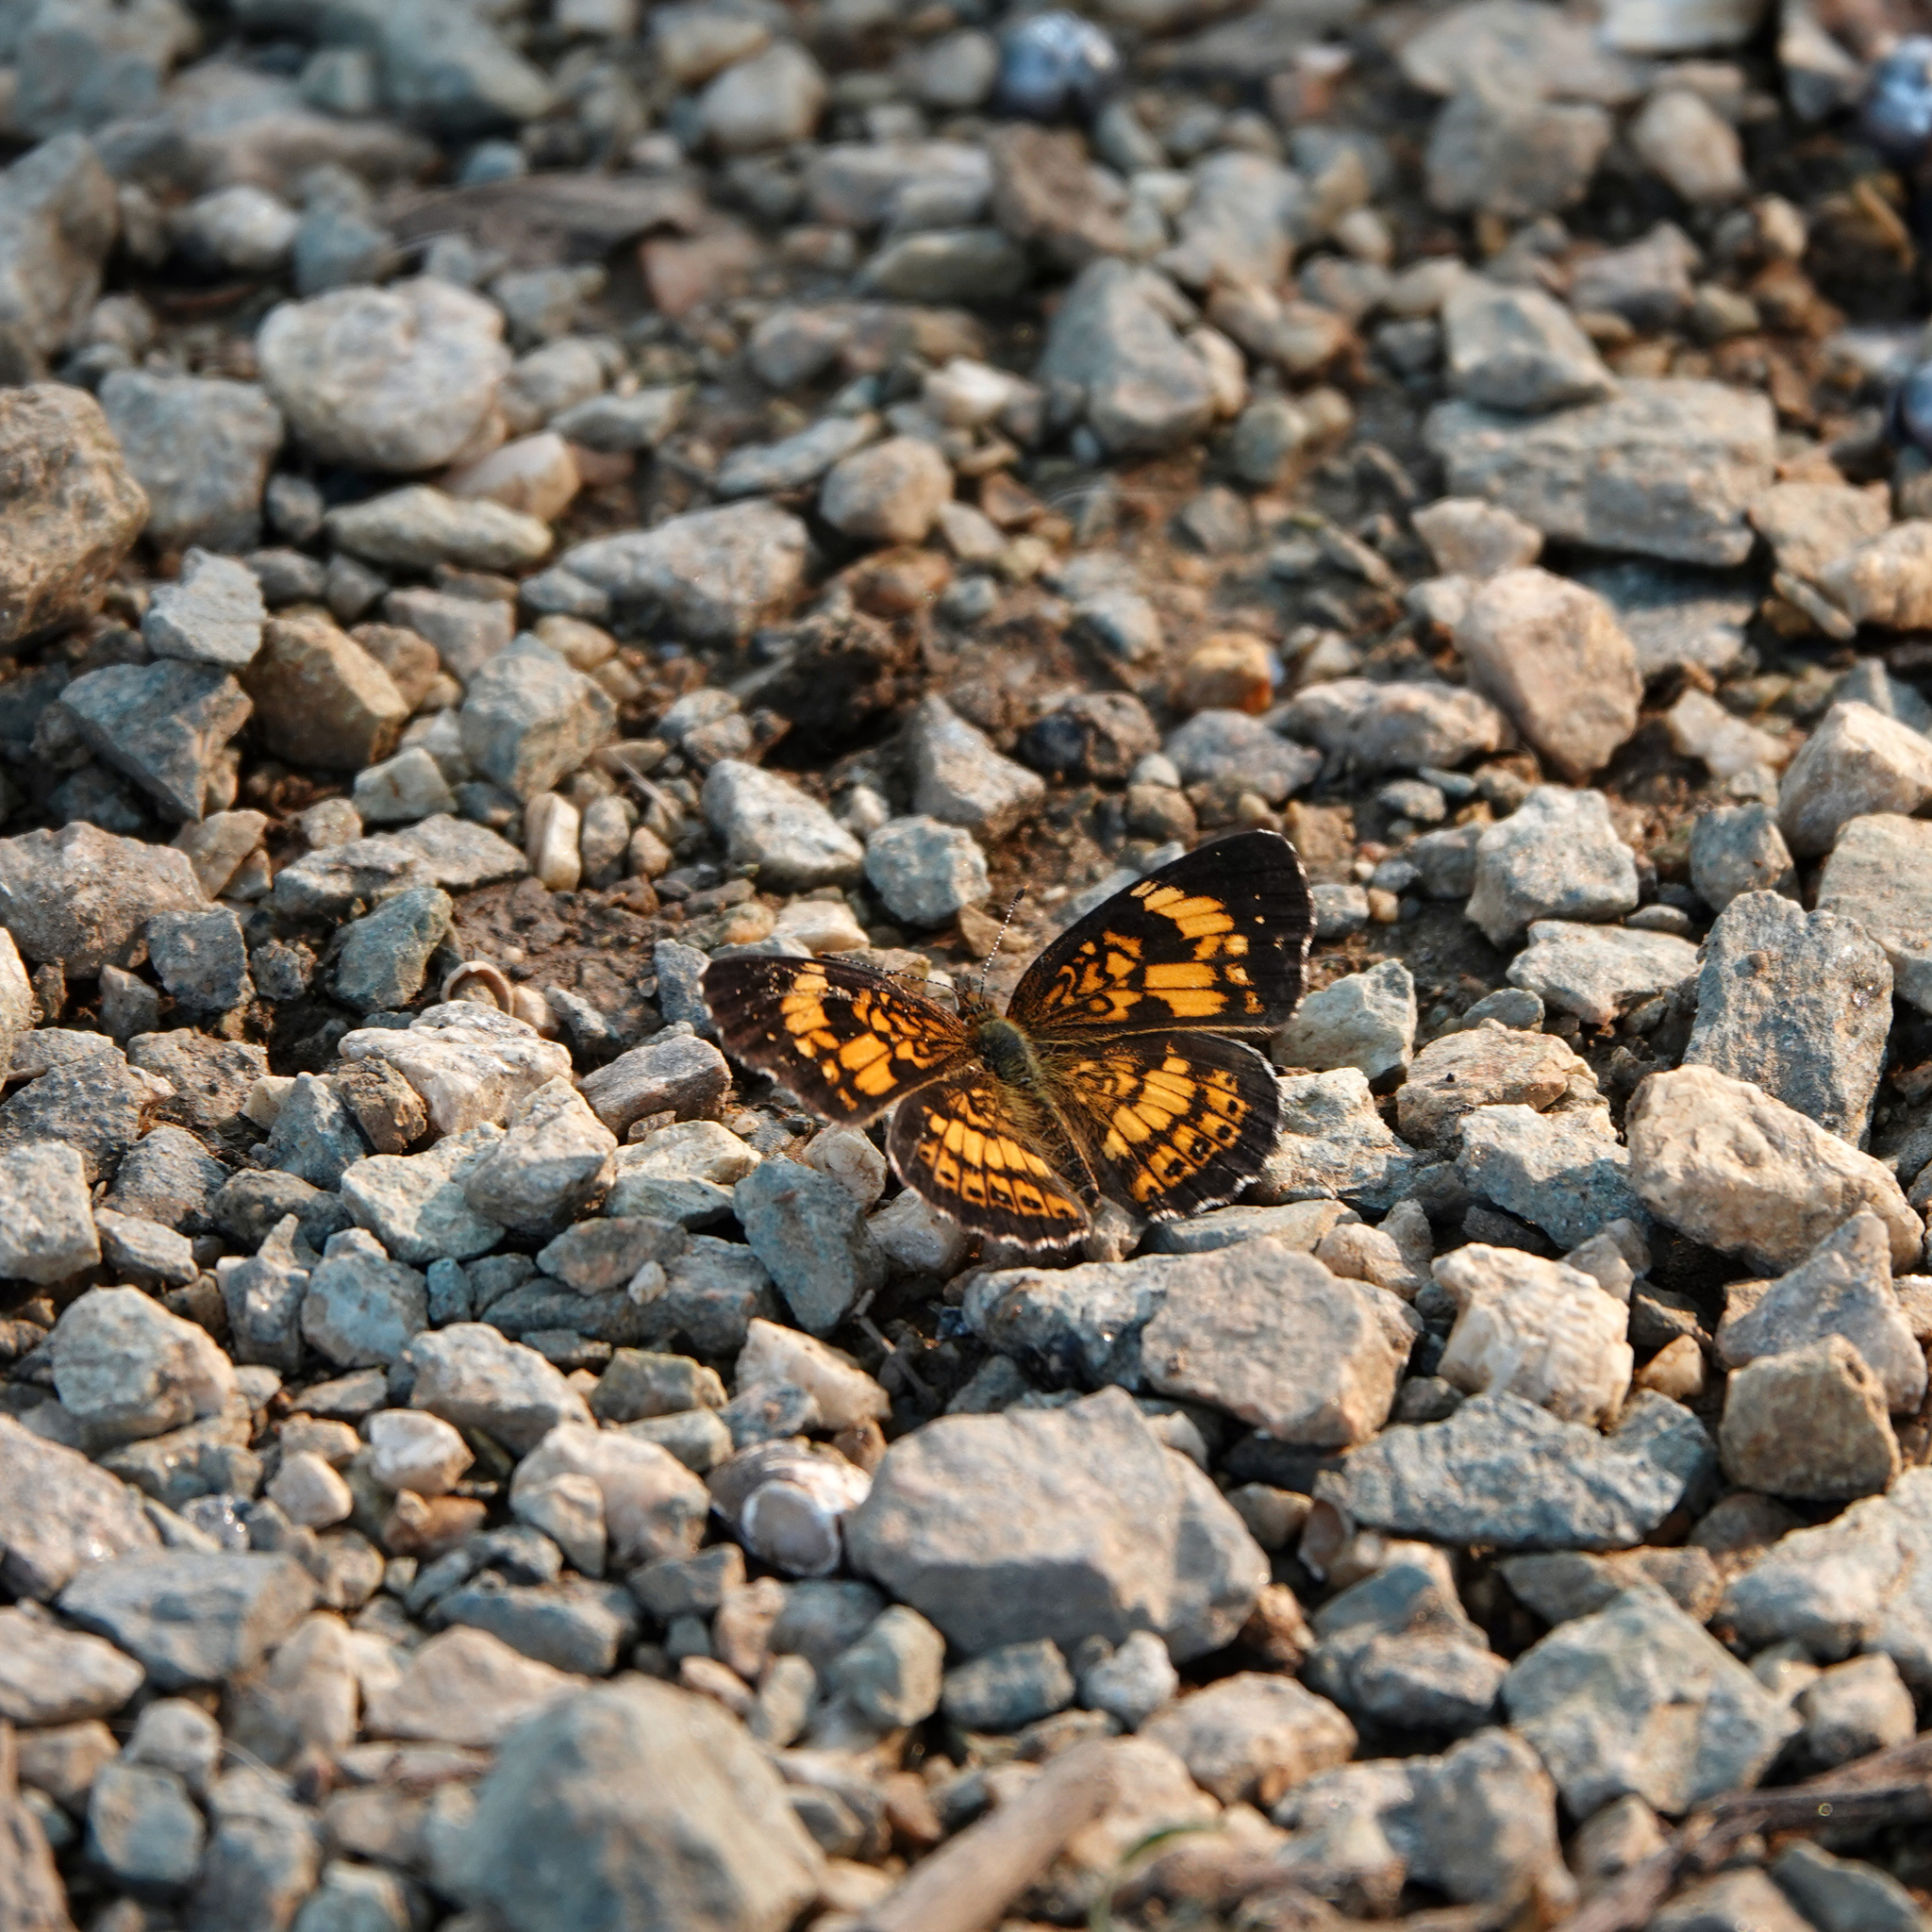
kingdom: Animalia
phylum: Arthropoda
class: Insecta
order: Lepidoptera
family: Nymphalidae
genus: Chlosyne
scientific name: Chlosyne nycteis
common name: Silvery checkerspot
